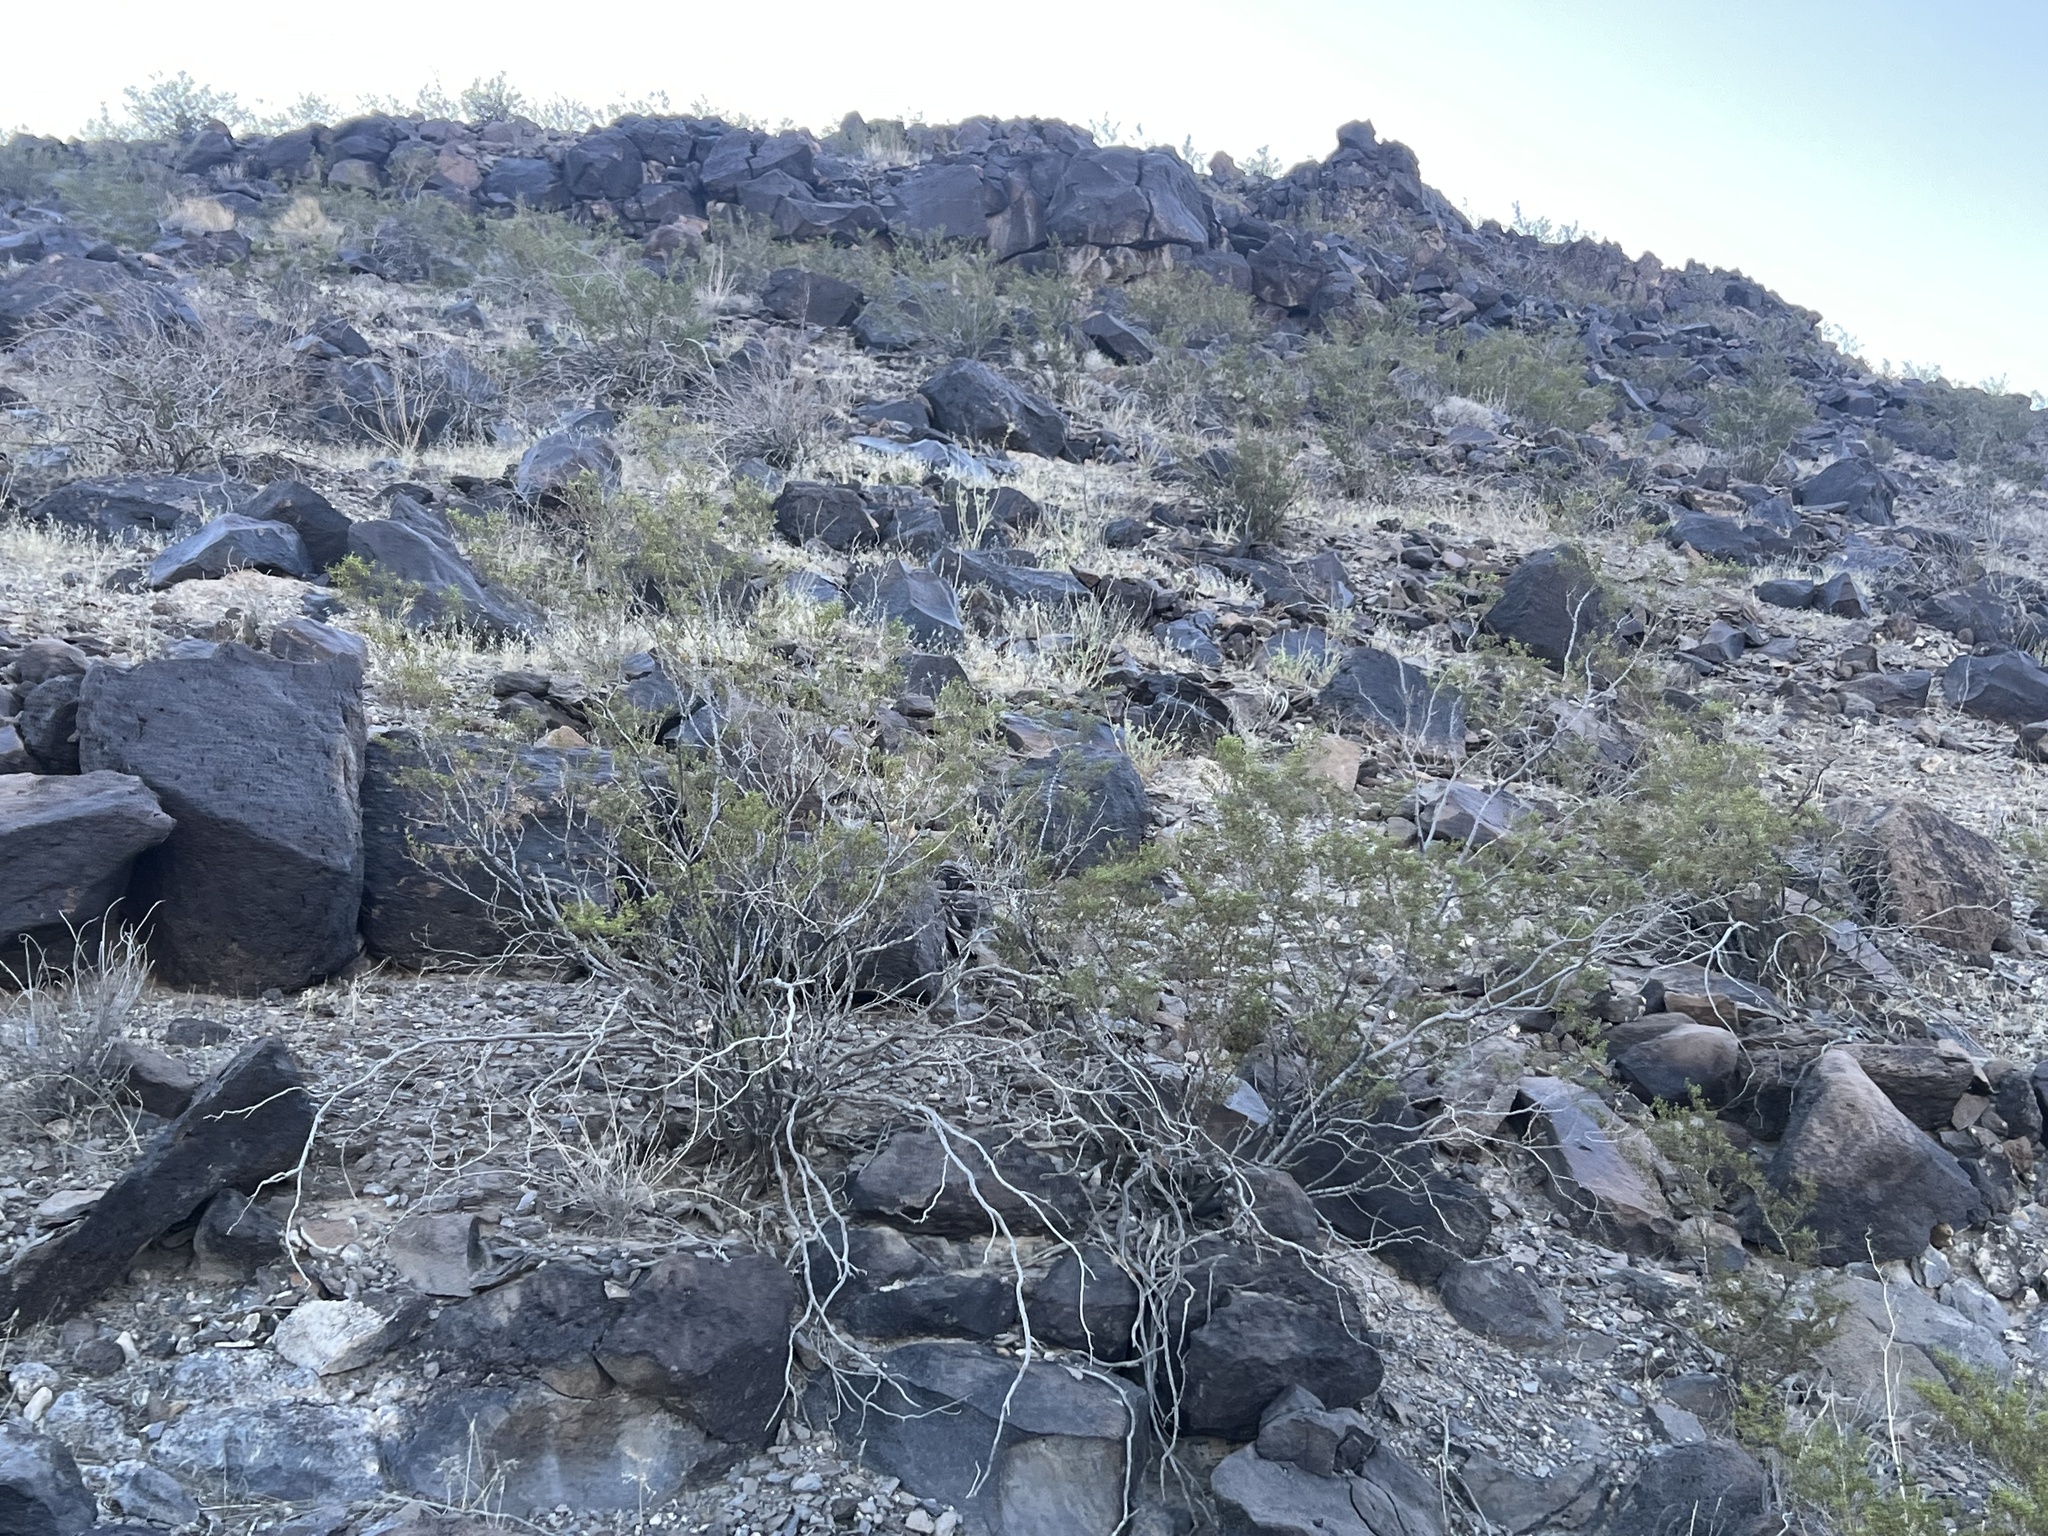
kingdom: Plantae
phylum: Tracheophyta
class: Magnoliopsida
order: Zygophyllales
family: Zygophyllaceae
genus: Larrea
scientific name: Larrea tridentata
